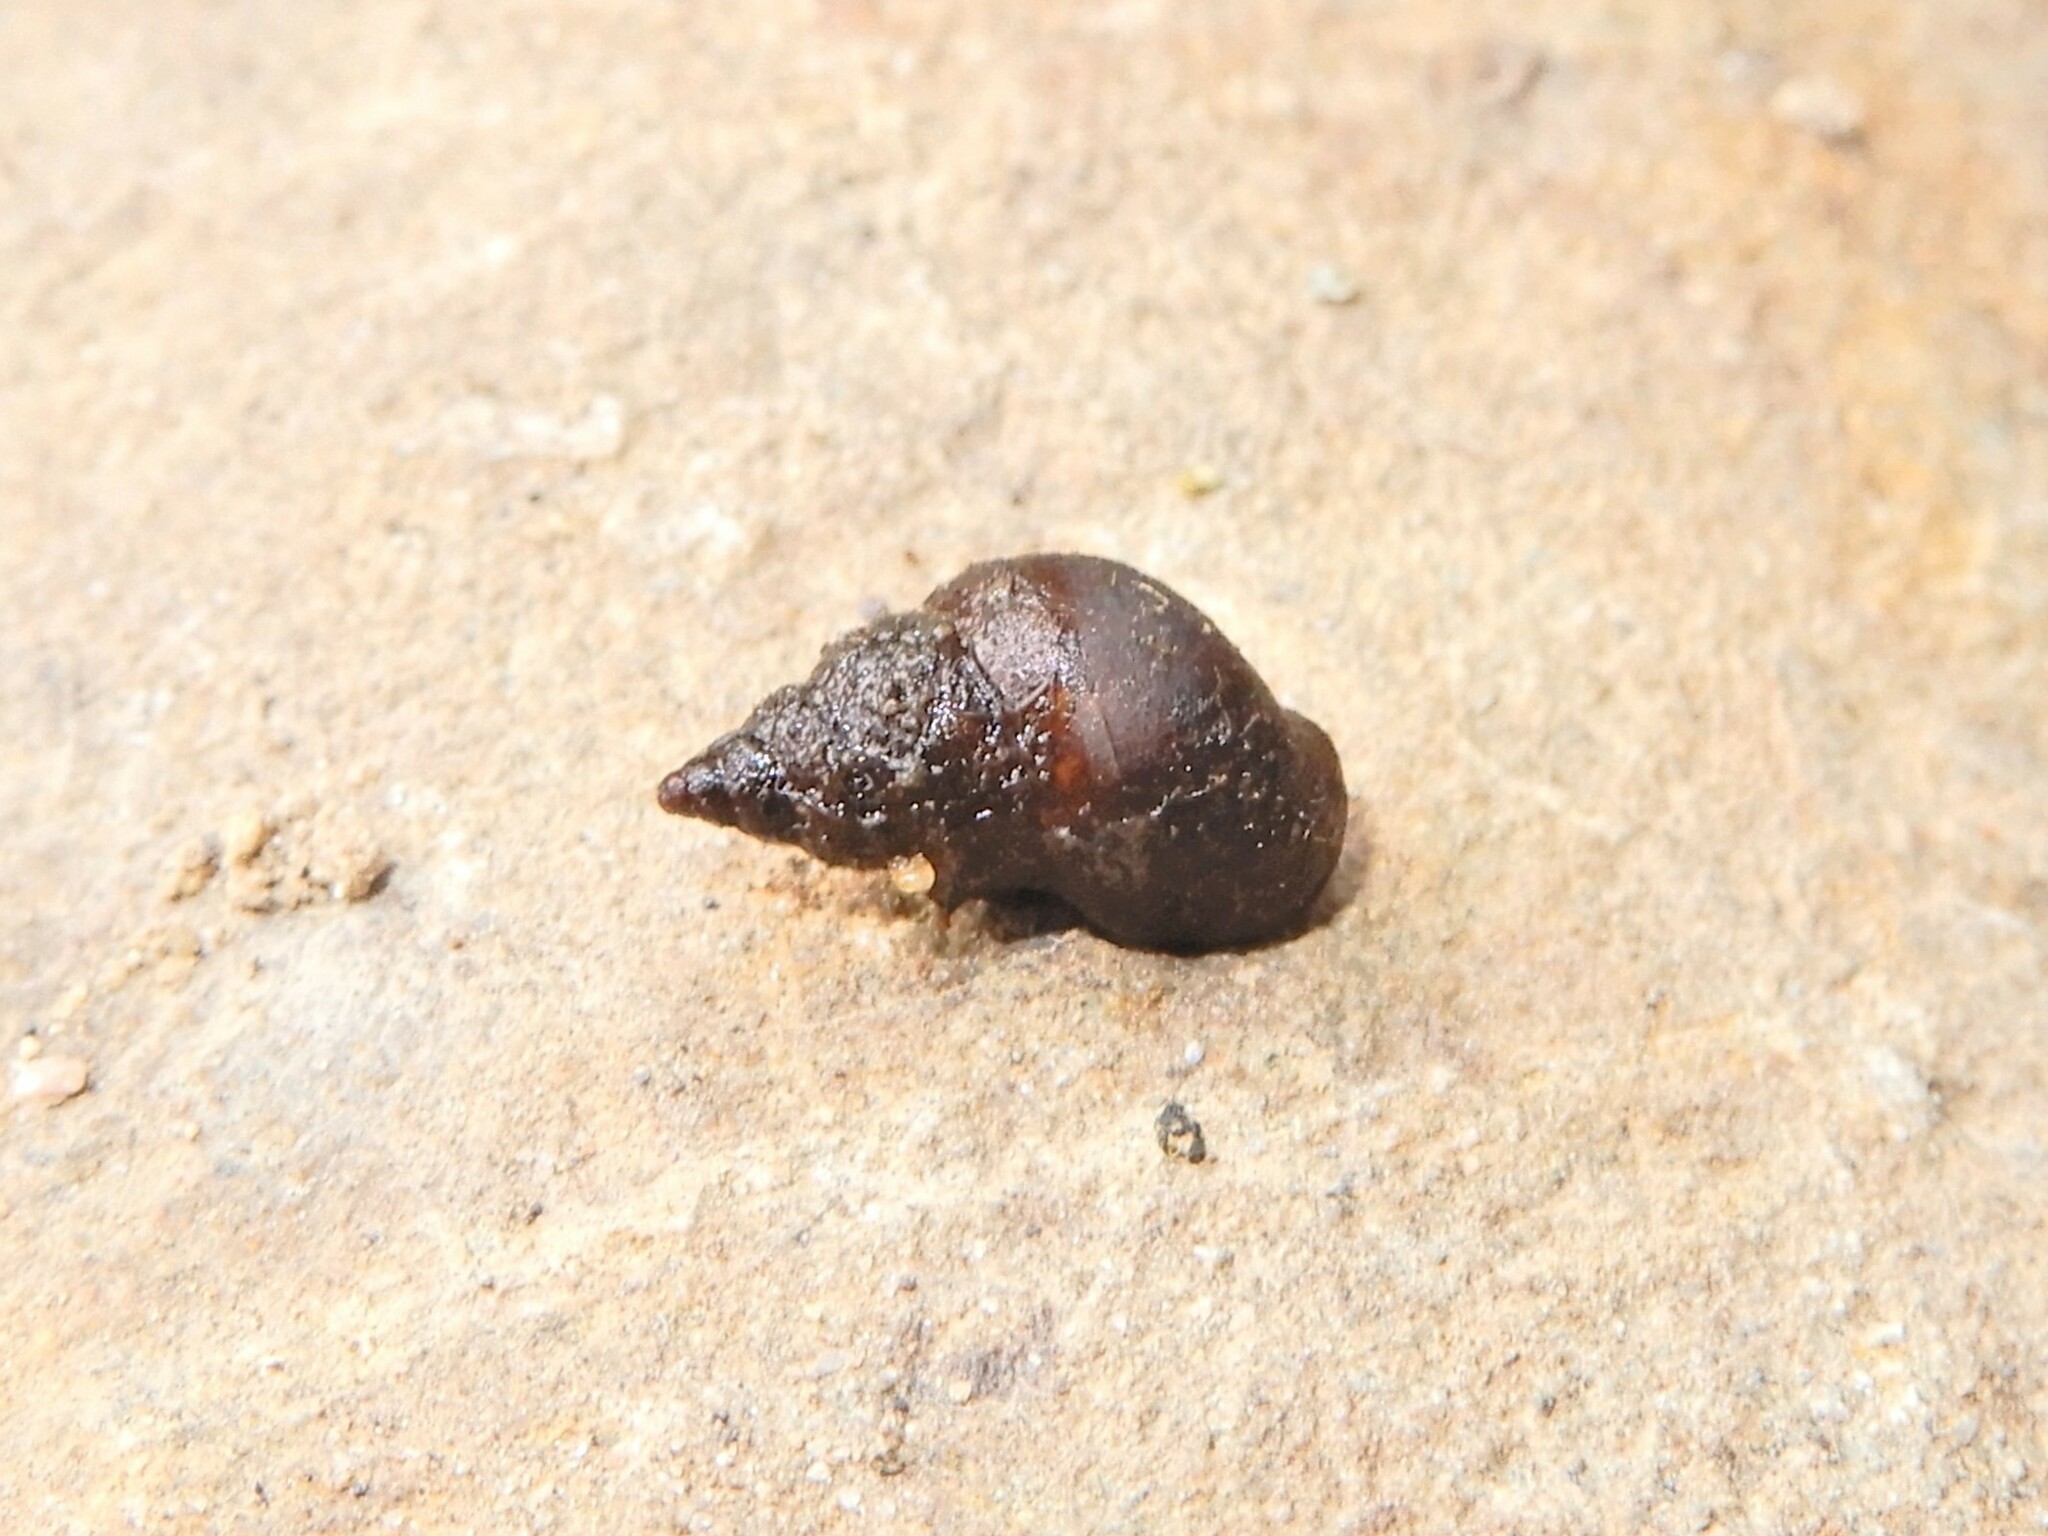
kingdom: Animalia
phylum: Mollusca
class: Gastropoda
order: Littorinimorpha
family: Tateidae
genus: Potamopyrgus
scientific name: Potamopyrgus antipodarum
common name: Jenkins' spire snail
